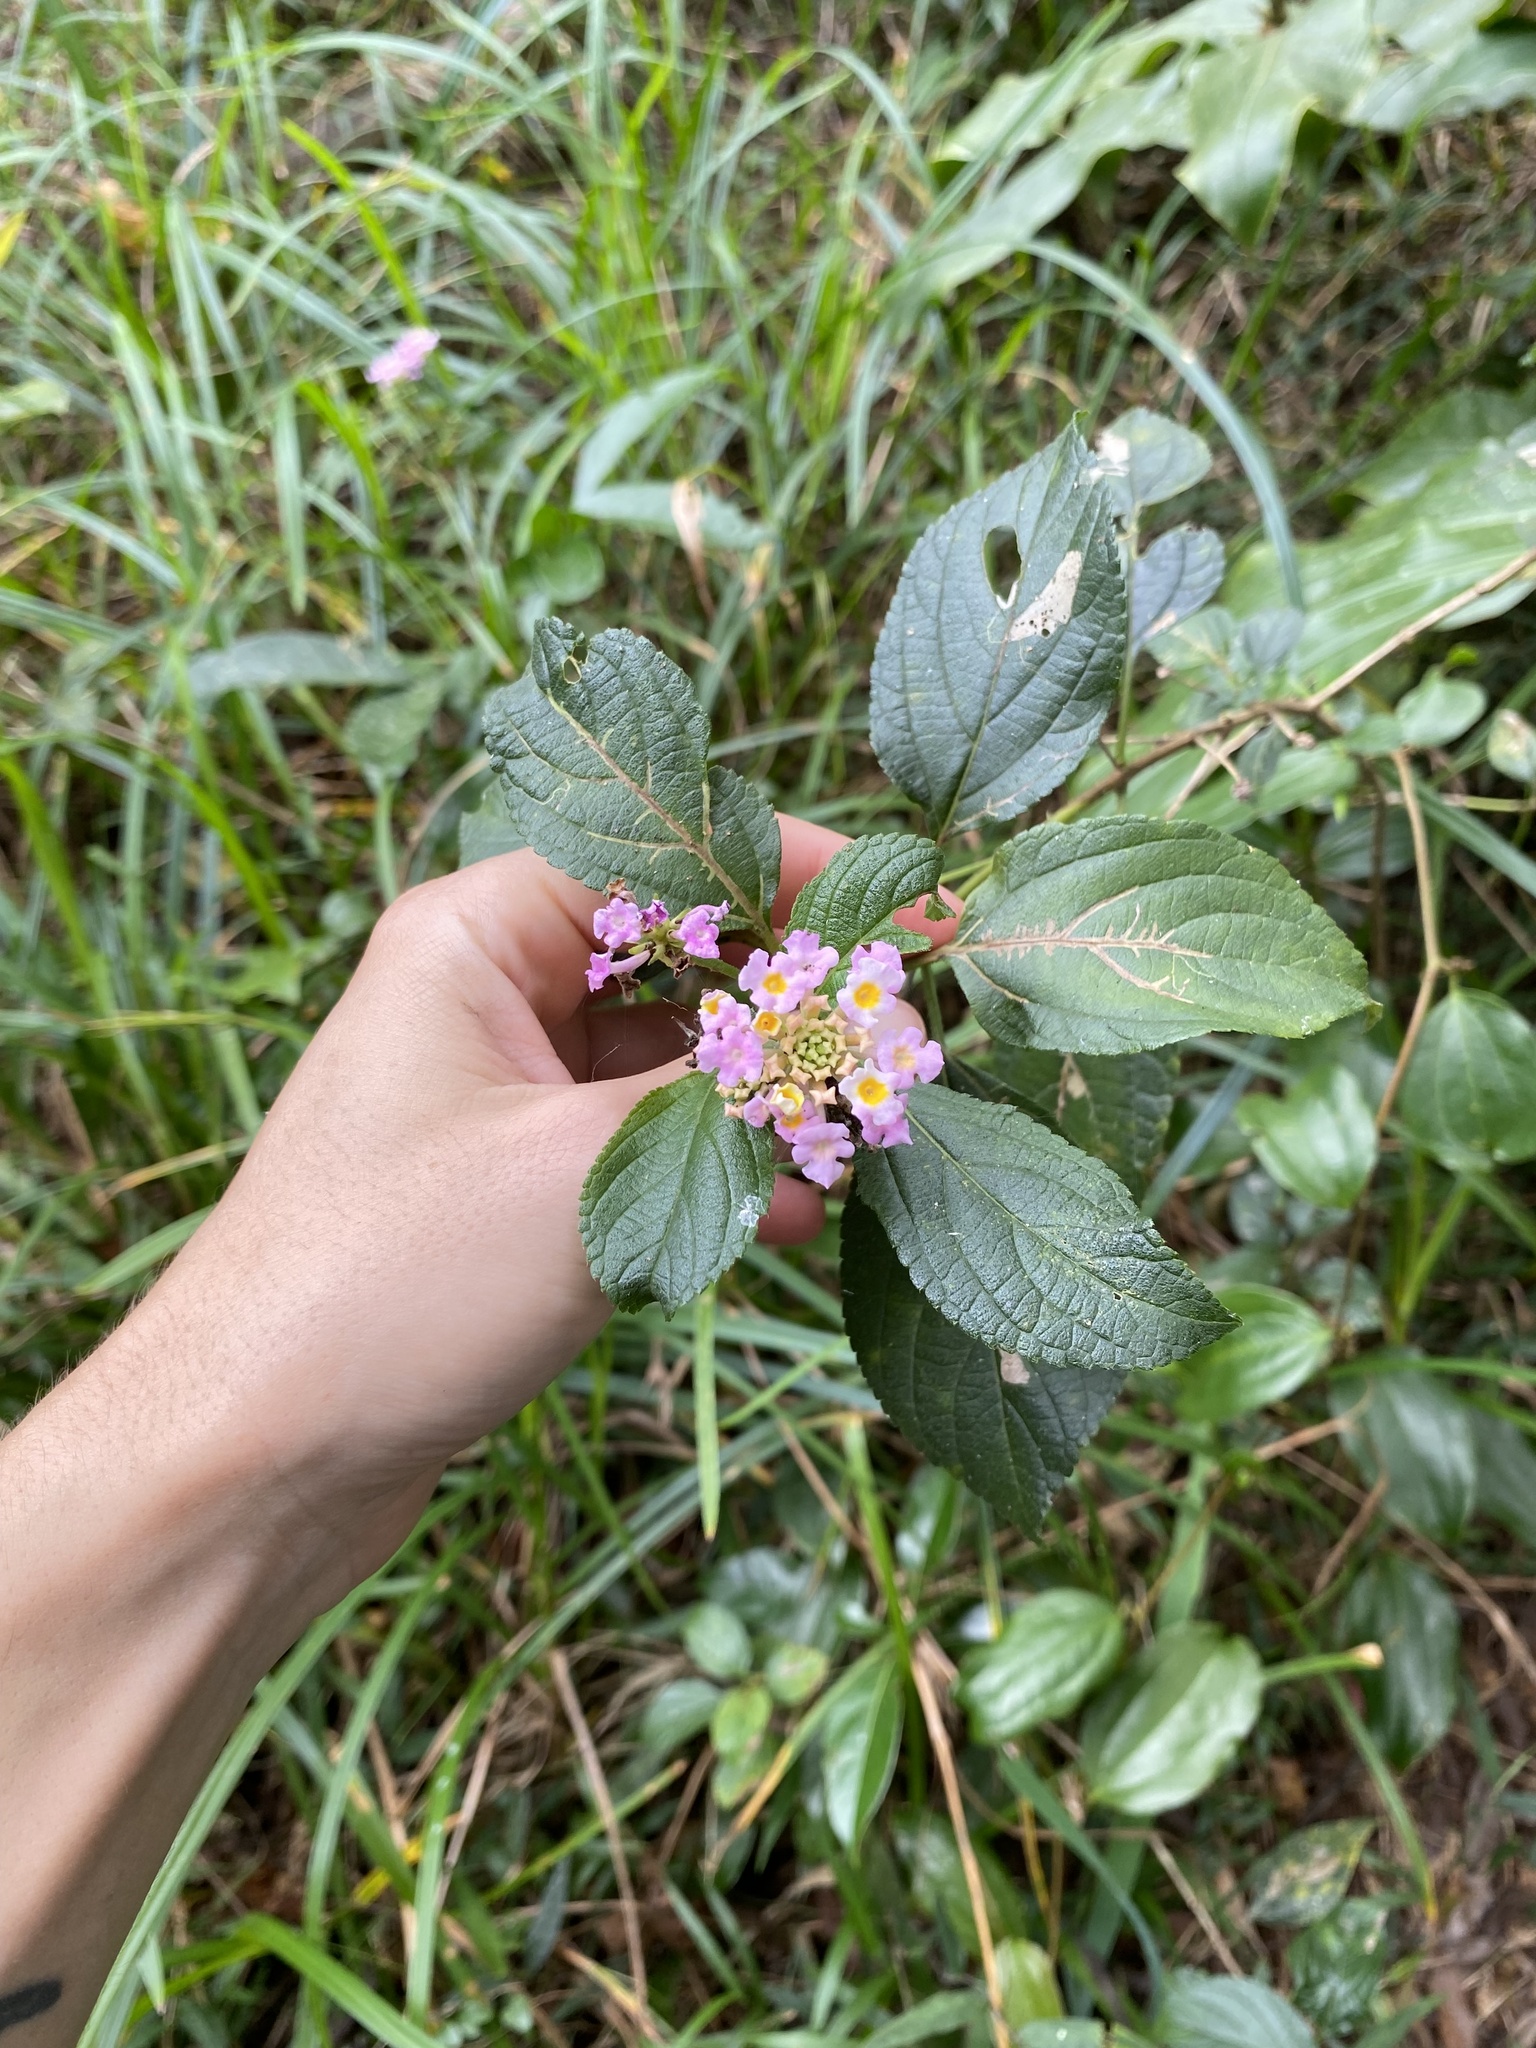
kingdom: Plantae
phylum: Tracheophyta
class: Magnoliopsida
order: Lamiales
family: Verbenaceae
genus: Lantana
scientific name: Lantana camara
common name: Lantana
